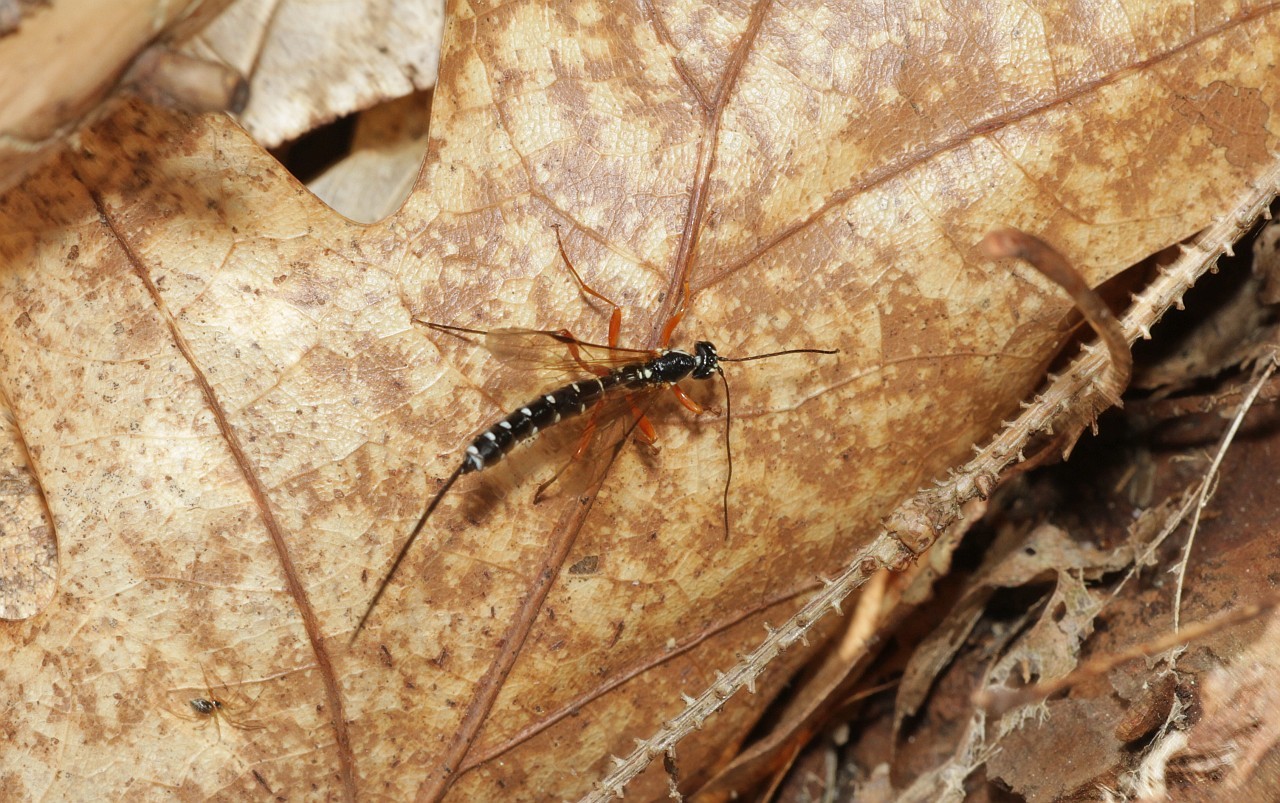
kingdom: Animalia
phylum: Arthropoda
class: Insecta
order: Hymenoptera
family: Ichneumonidae
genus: Rhyssa
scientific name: Rhyssa persuasoria
